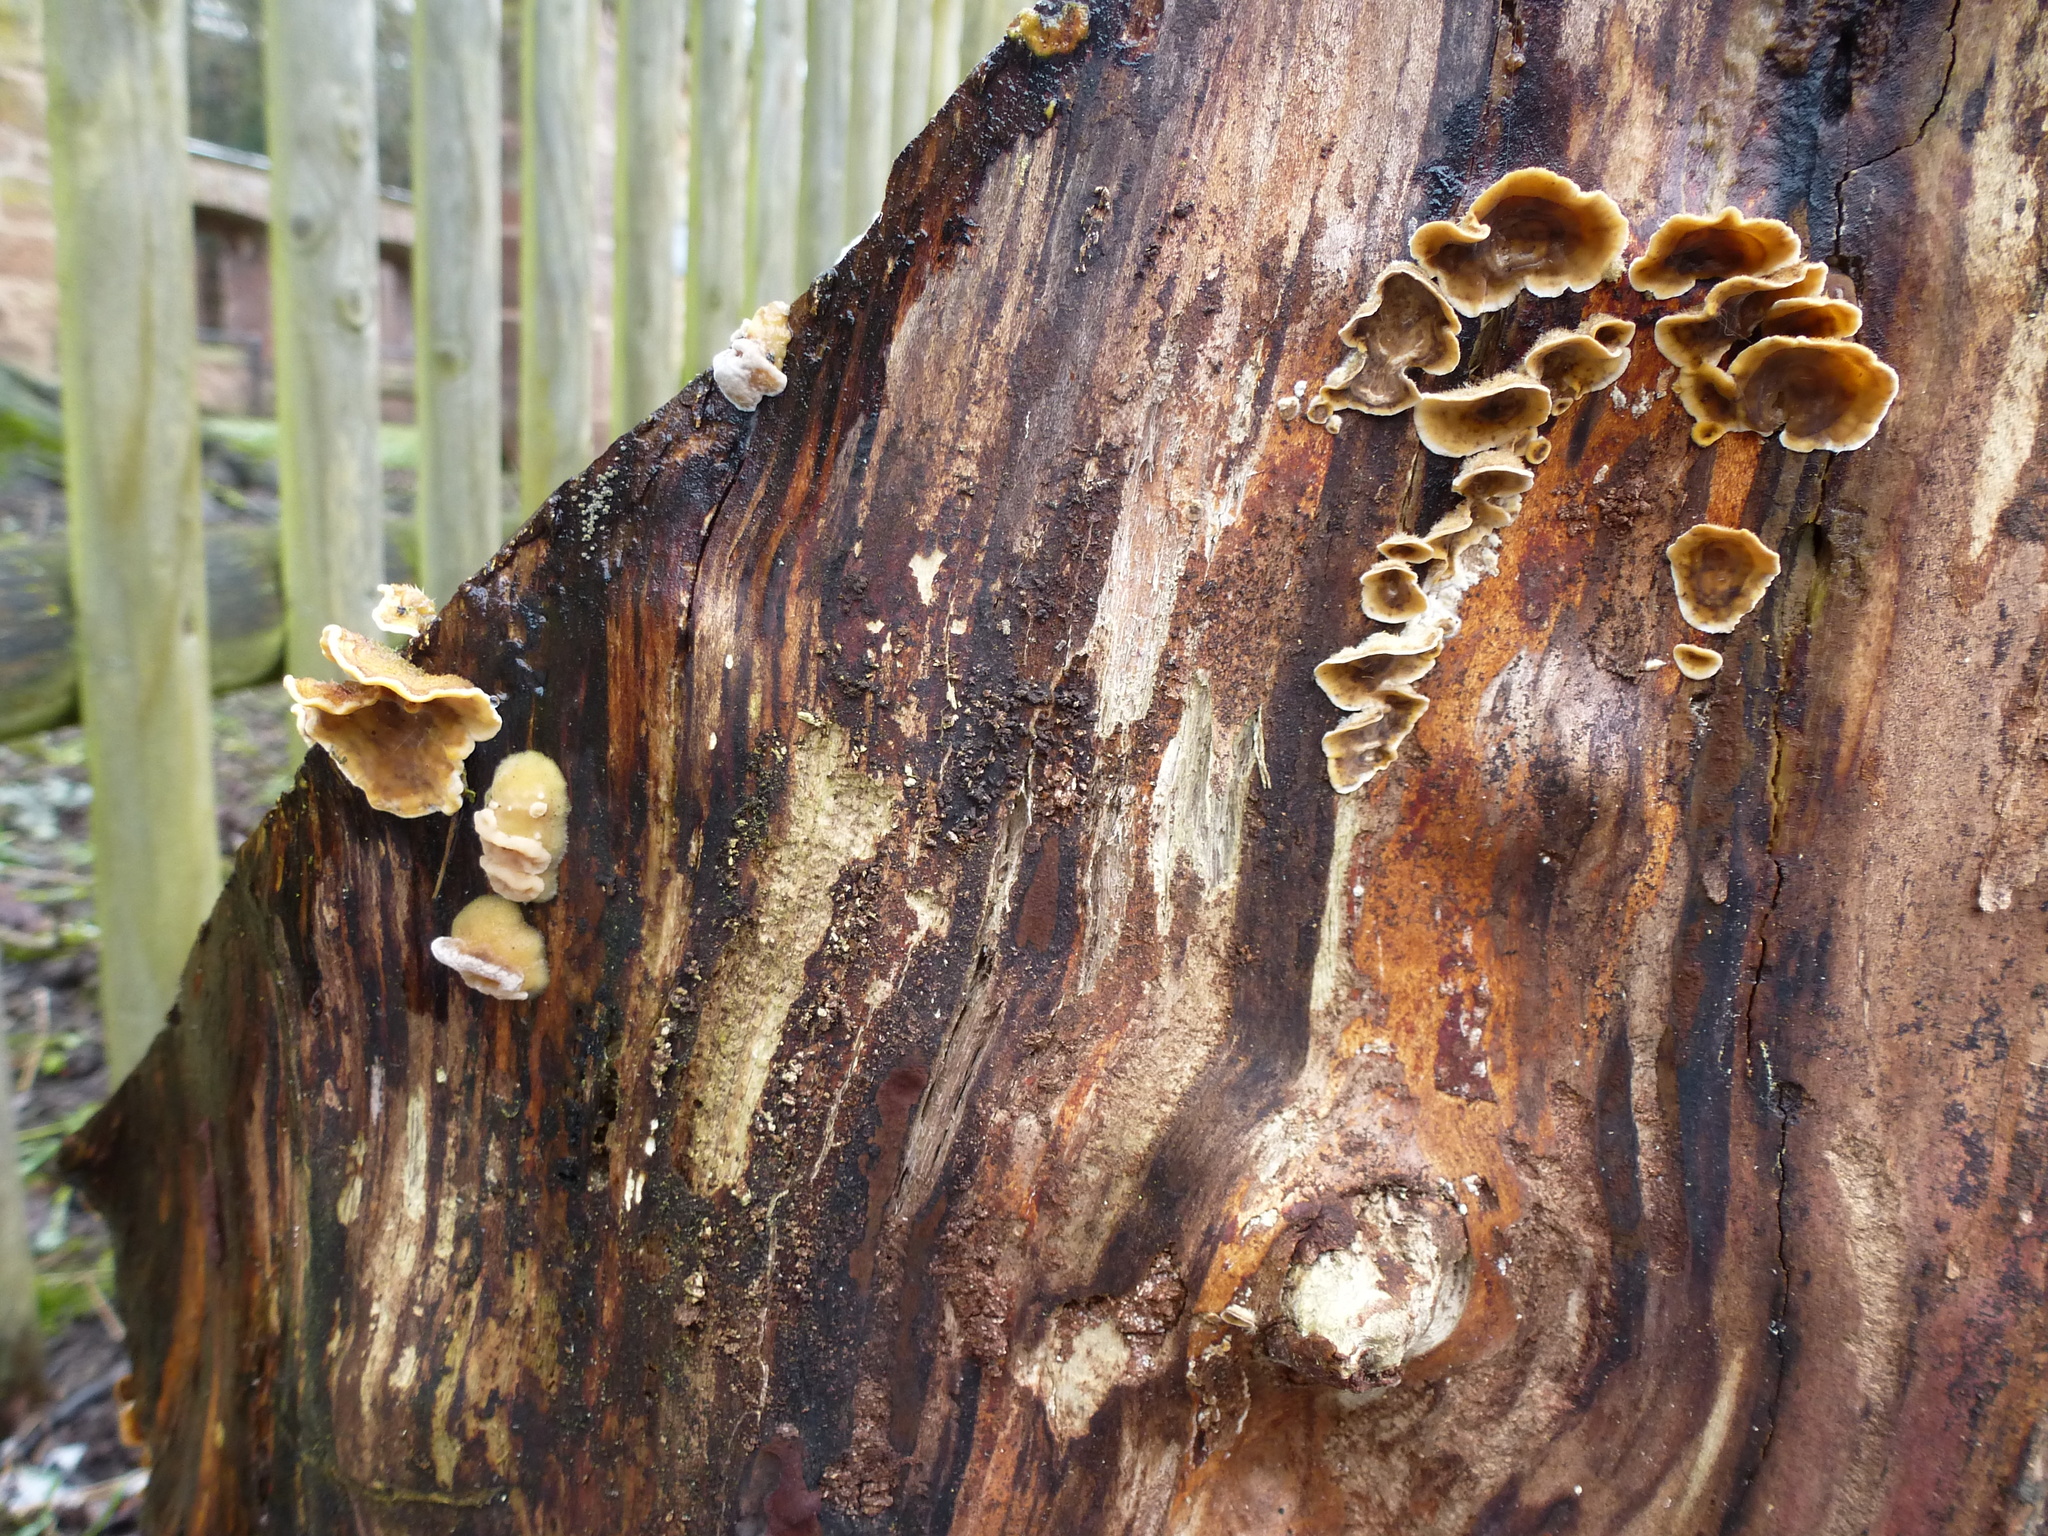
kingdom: Fungi
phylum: Basidiomycota
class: Agaricomycetes
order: Russulales
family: Stereaceae
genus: Stereum
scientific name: Stereum hirsutum
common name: Hairy curtain crust
